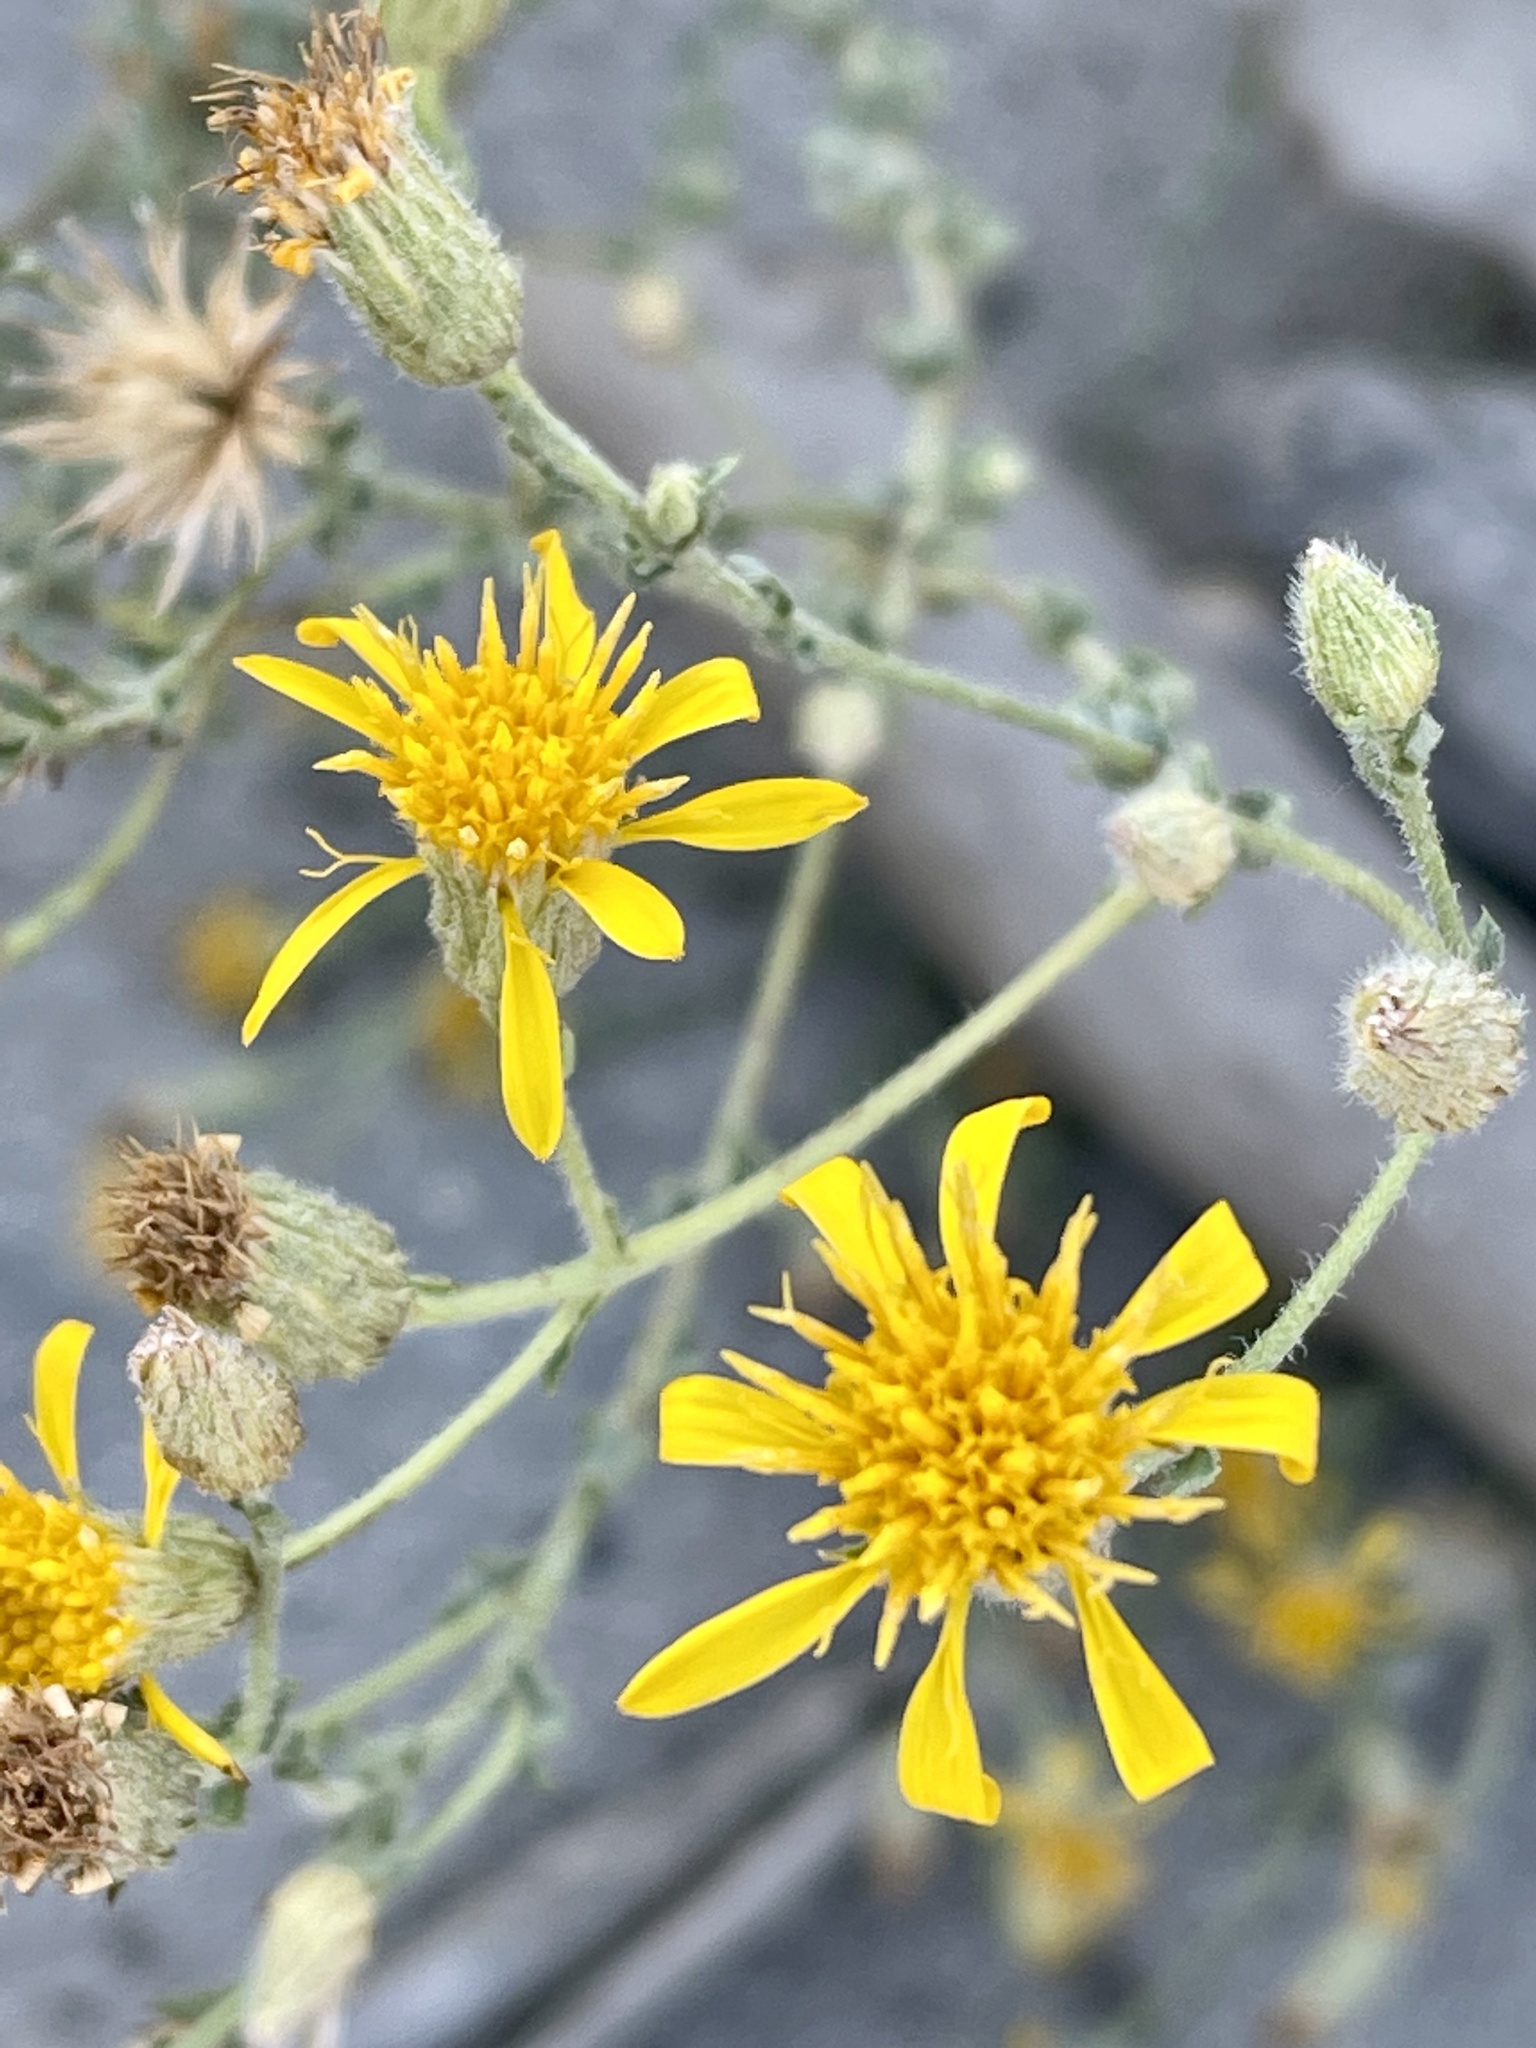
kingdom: Plantae
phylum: Tracheophyta
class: Magnoliopsida
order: Asterales
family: Asteraceae
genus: Heterotheca
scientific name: Heterotheca sessiliflora
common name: Sessile-flower golden-aster
